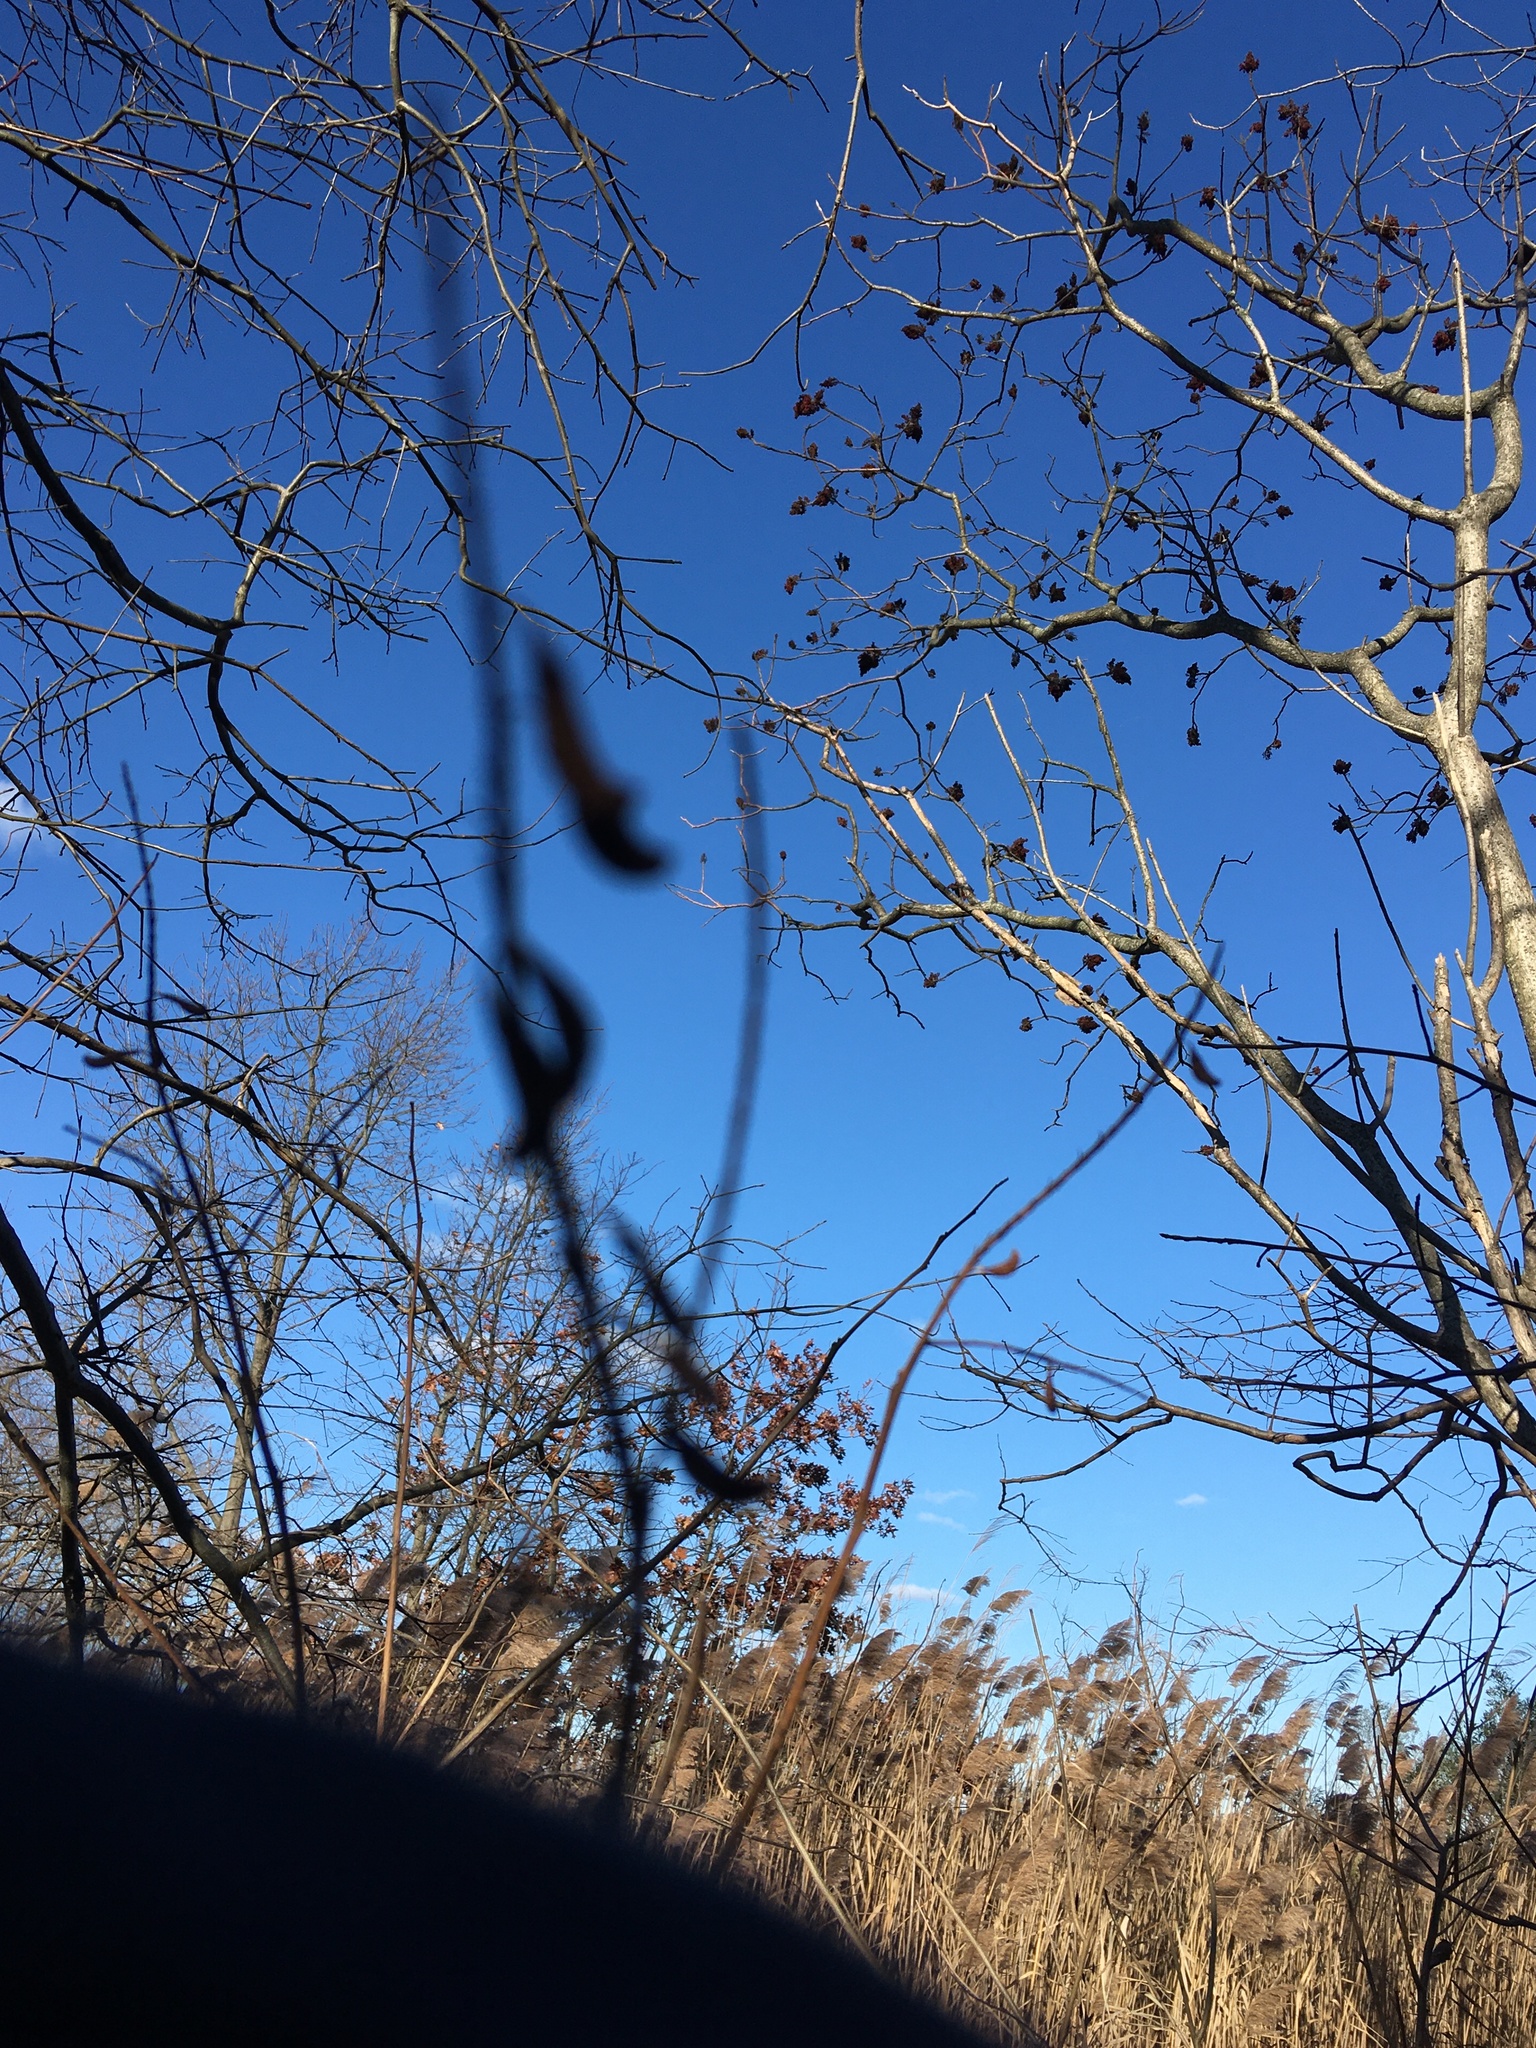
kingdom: Plantae
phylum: Tracheophyta
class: Magnoliopsida
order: Fabales
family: Fabaceae
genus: Amorpha
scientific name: Amorpha fruticosa
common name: False indigo
